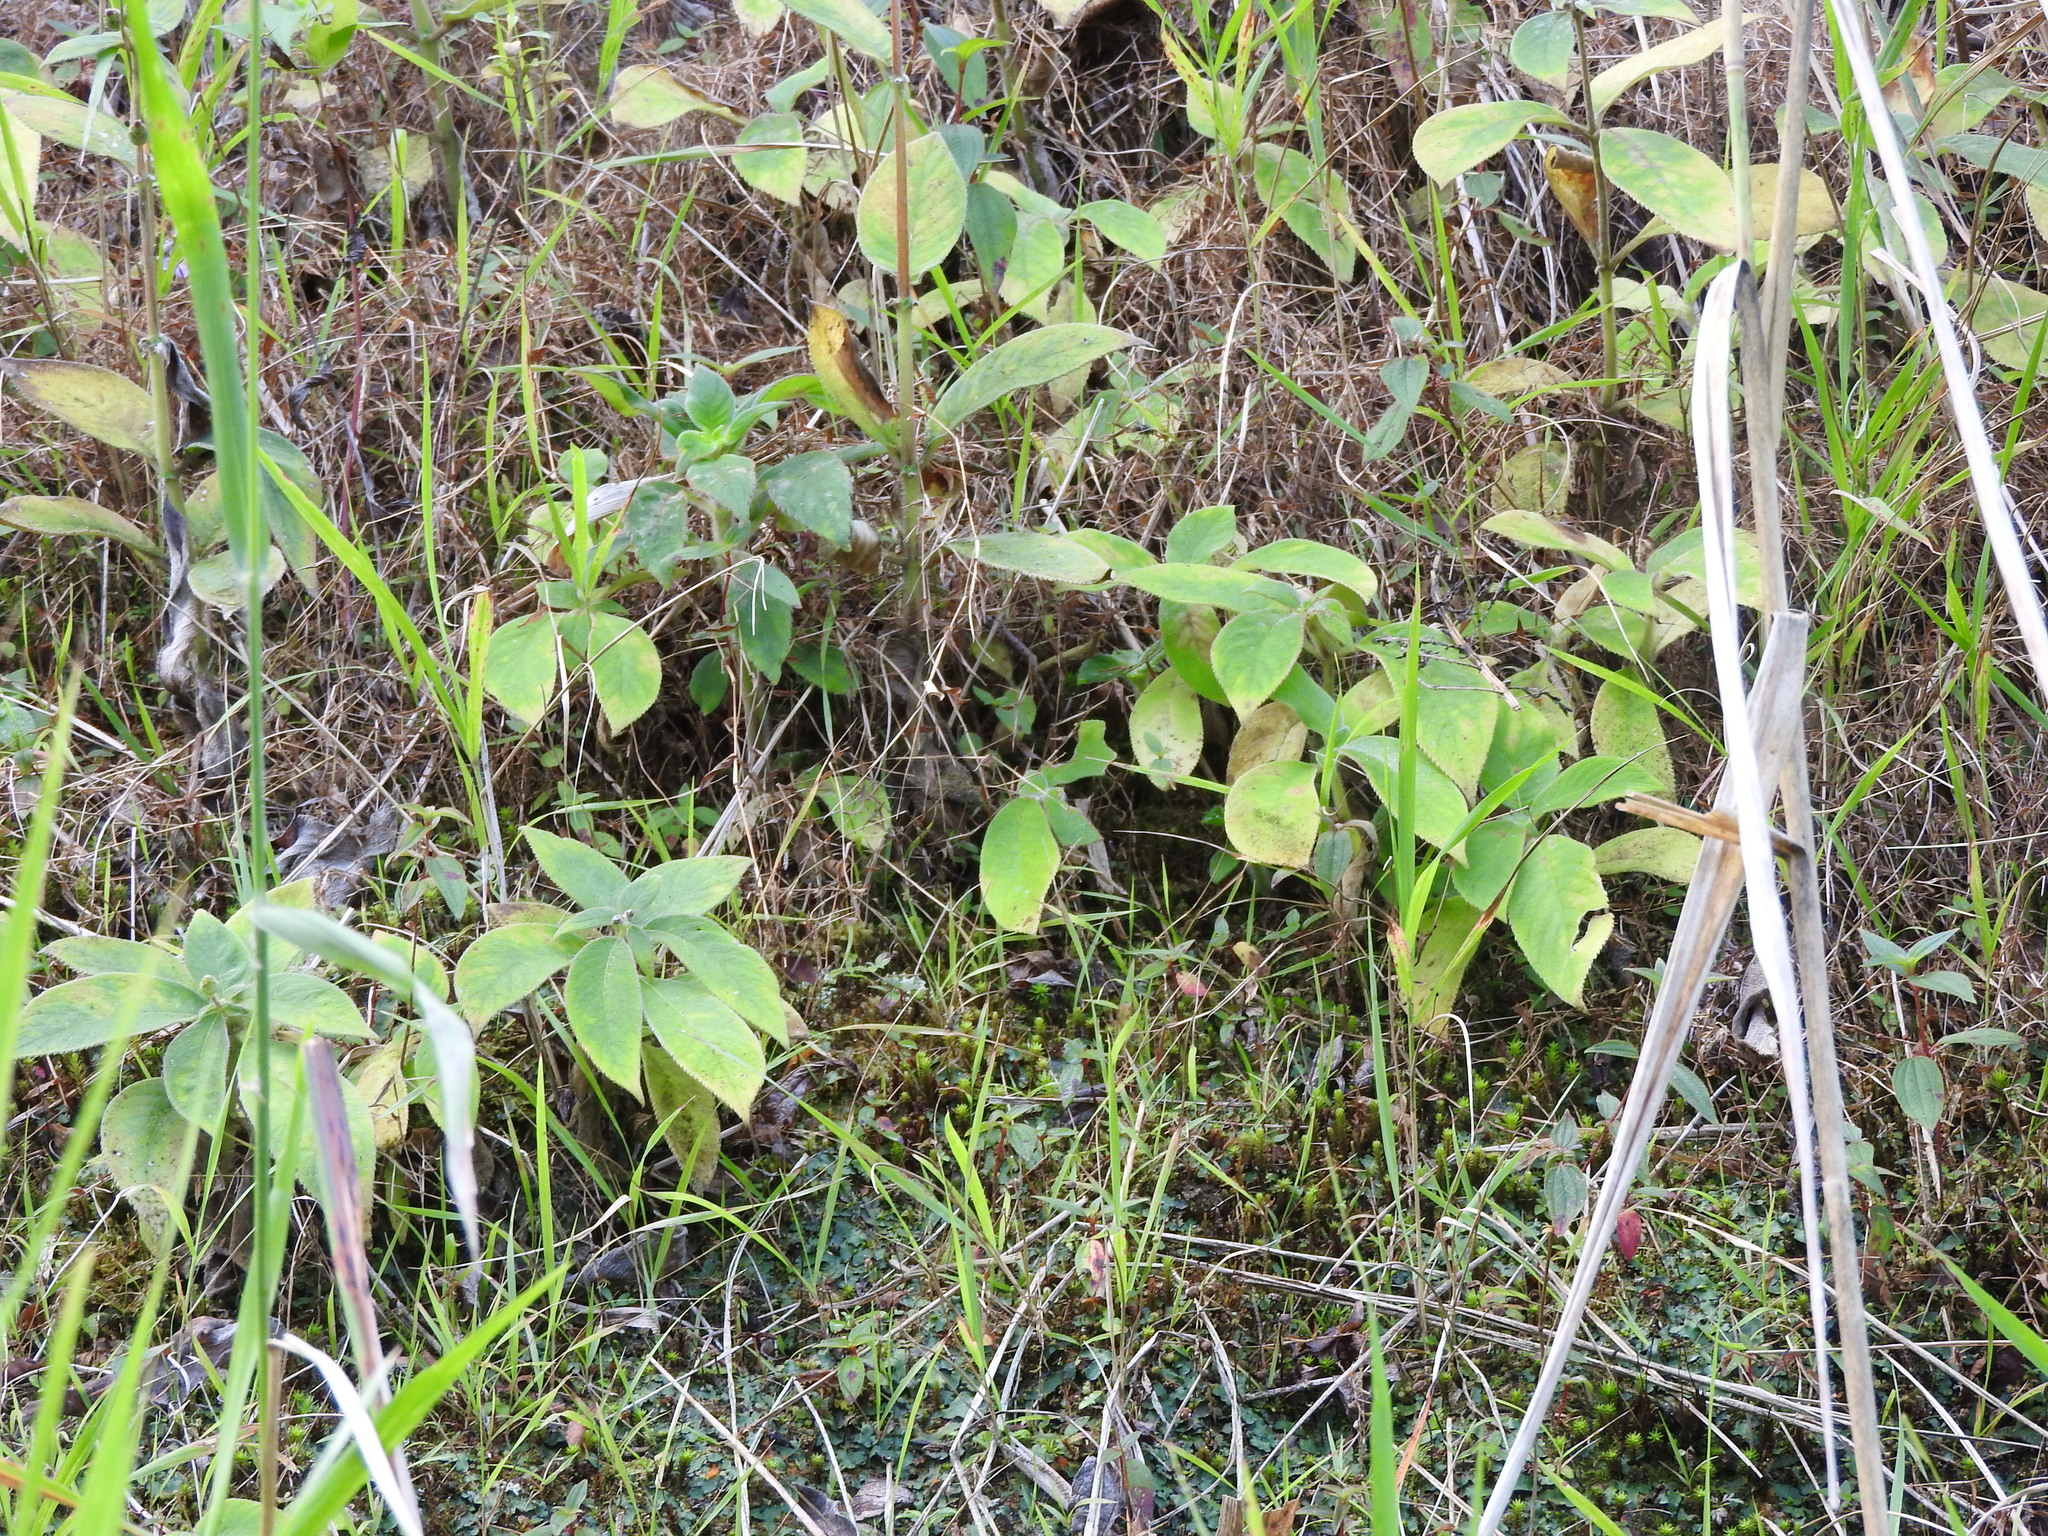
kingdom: Plantae
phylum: Tracheophyta
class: Magnoliopsida
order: Lamiales
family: Gesneriaceae
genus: Kohleria
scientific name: Kohleria spicata
